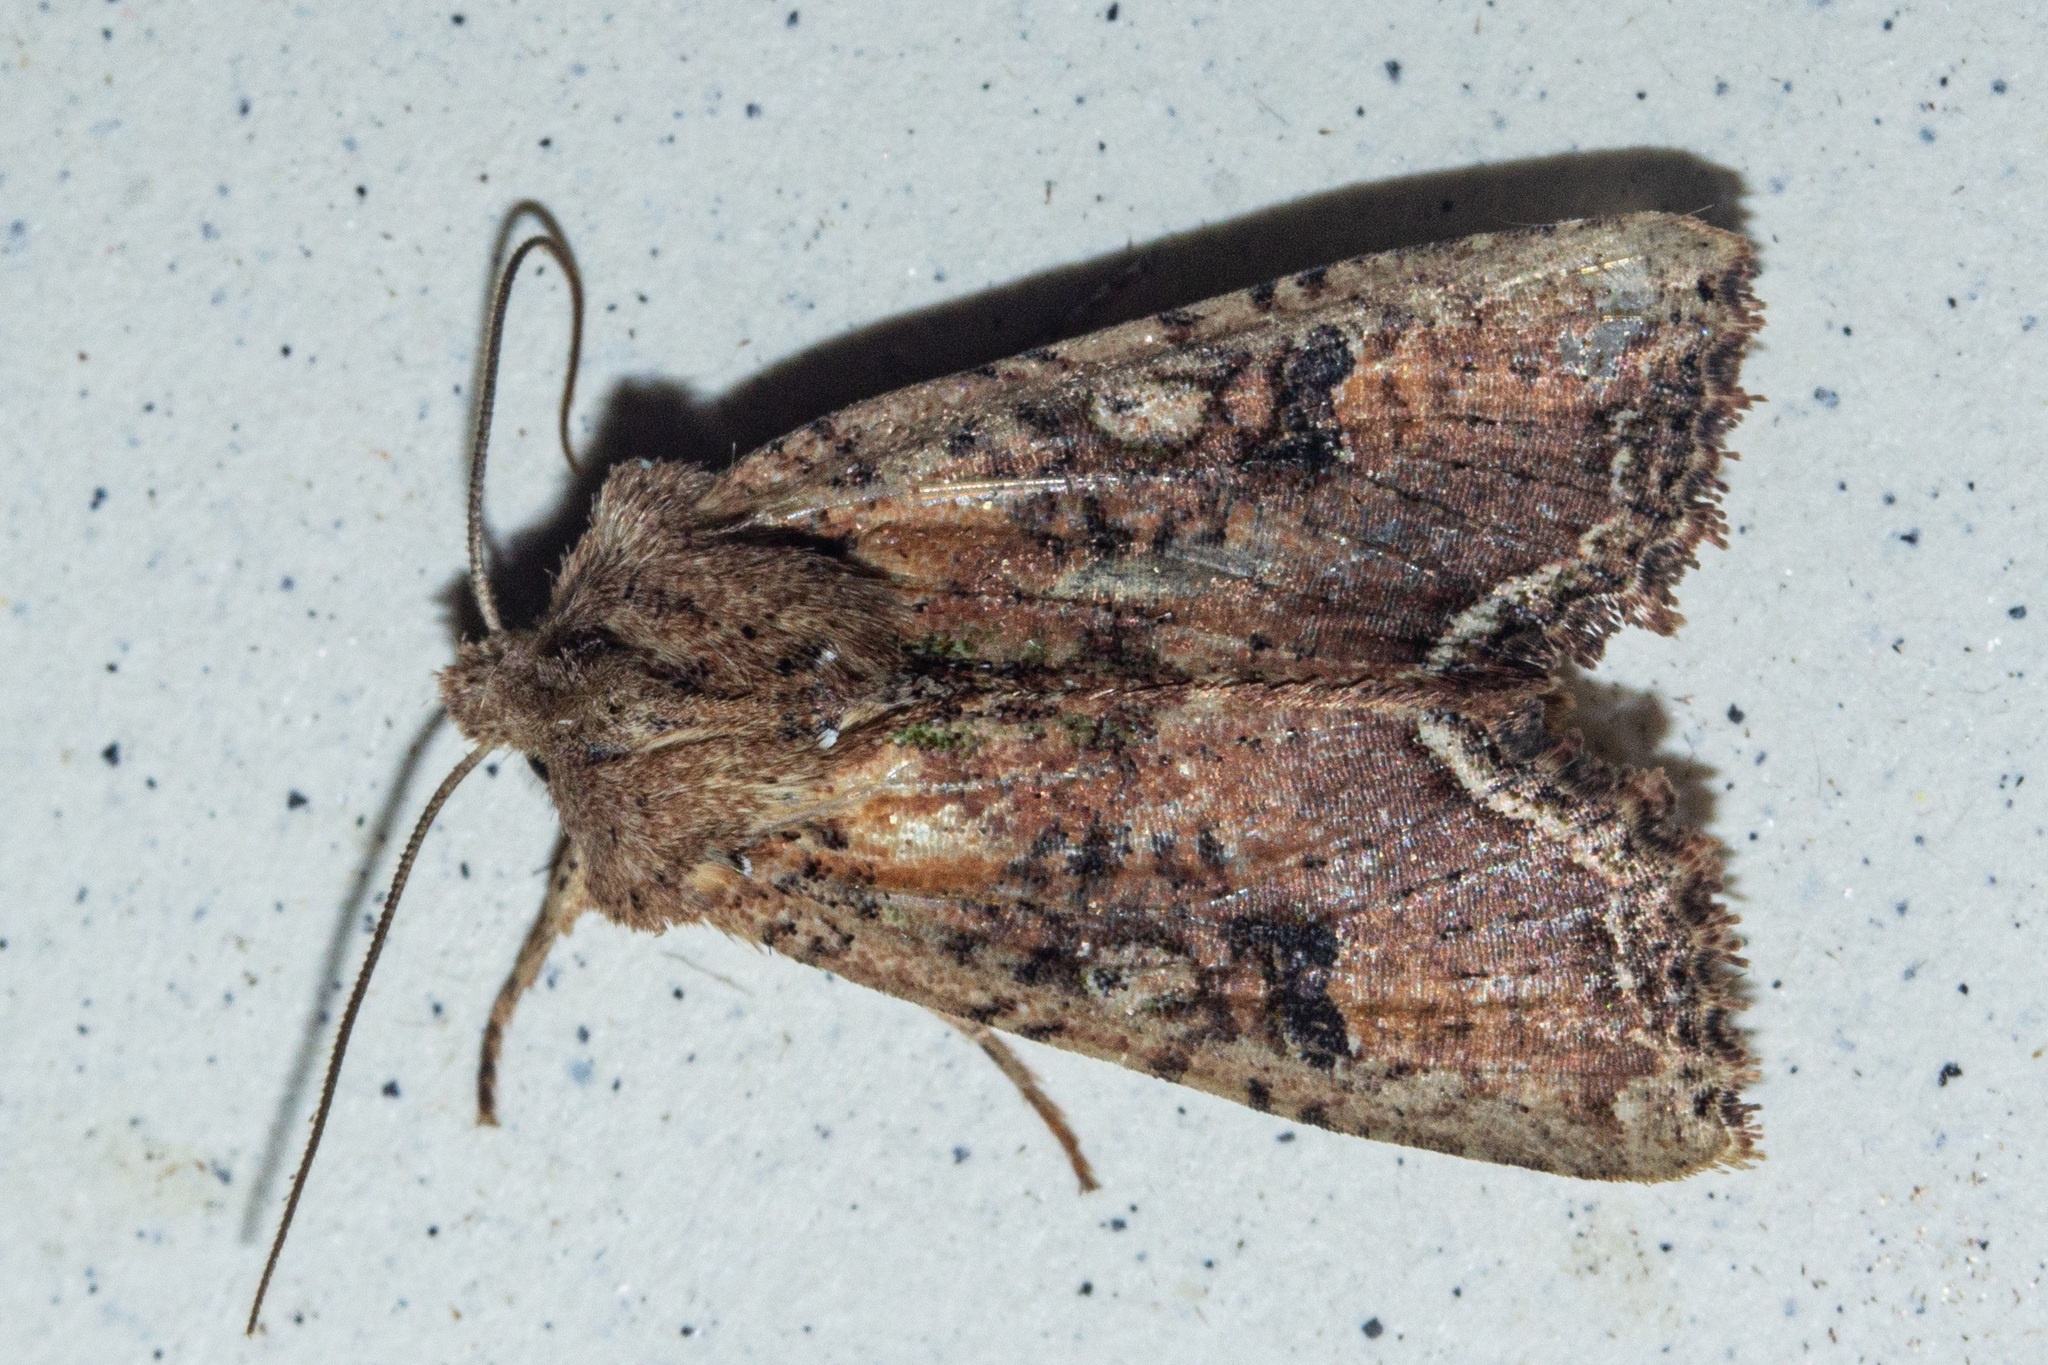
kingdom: Animalia
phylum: Arthropoda
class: Insecta
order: Lepidoptera
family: Noctuidae
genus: Meterana
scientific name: Meterana inchoata
